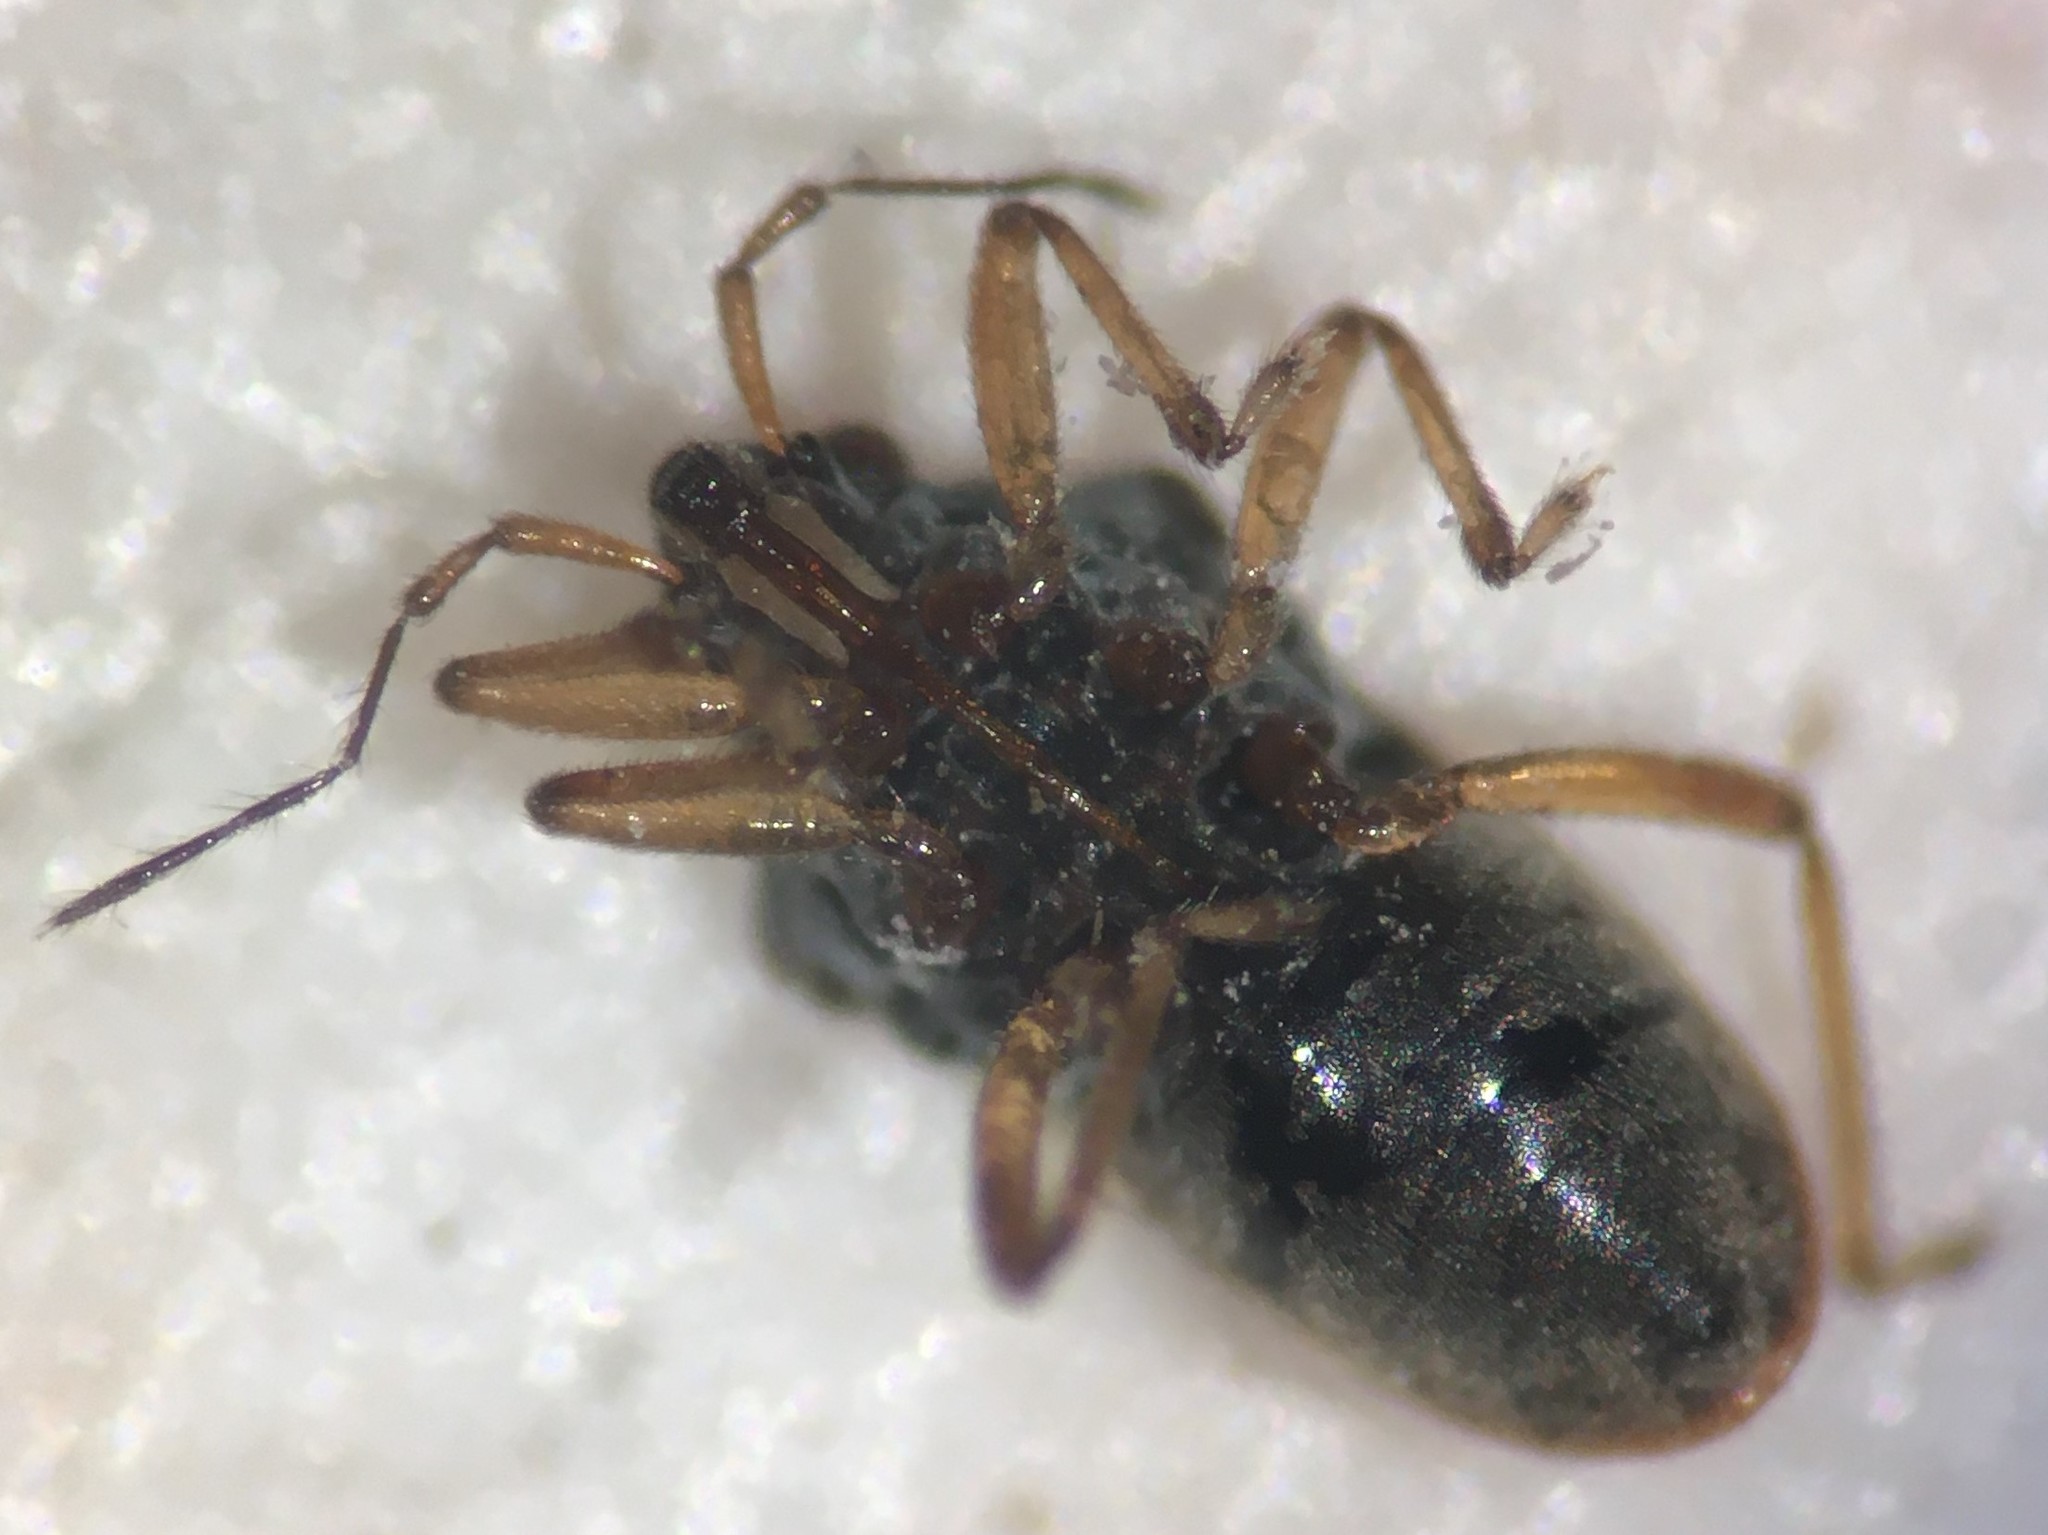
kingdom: Animalia
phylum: Arthropoda
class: Insecta
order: Hemiptera
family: Hebridae
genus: Hebrus
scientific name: Hebrus consolidus
